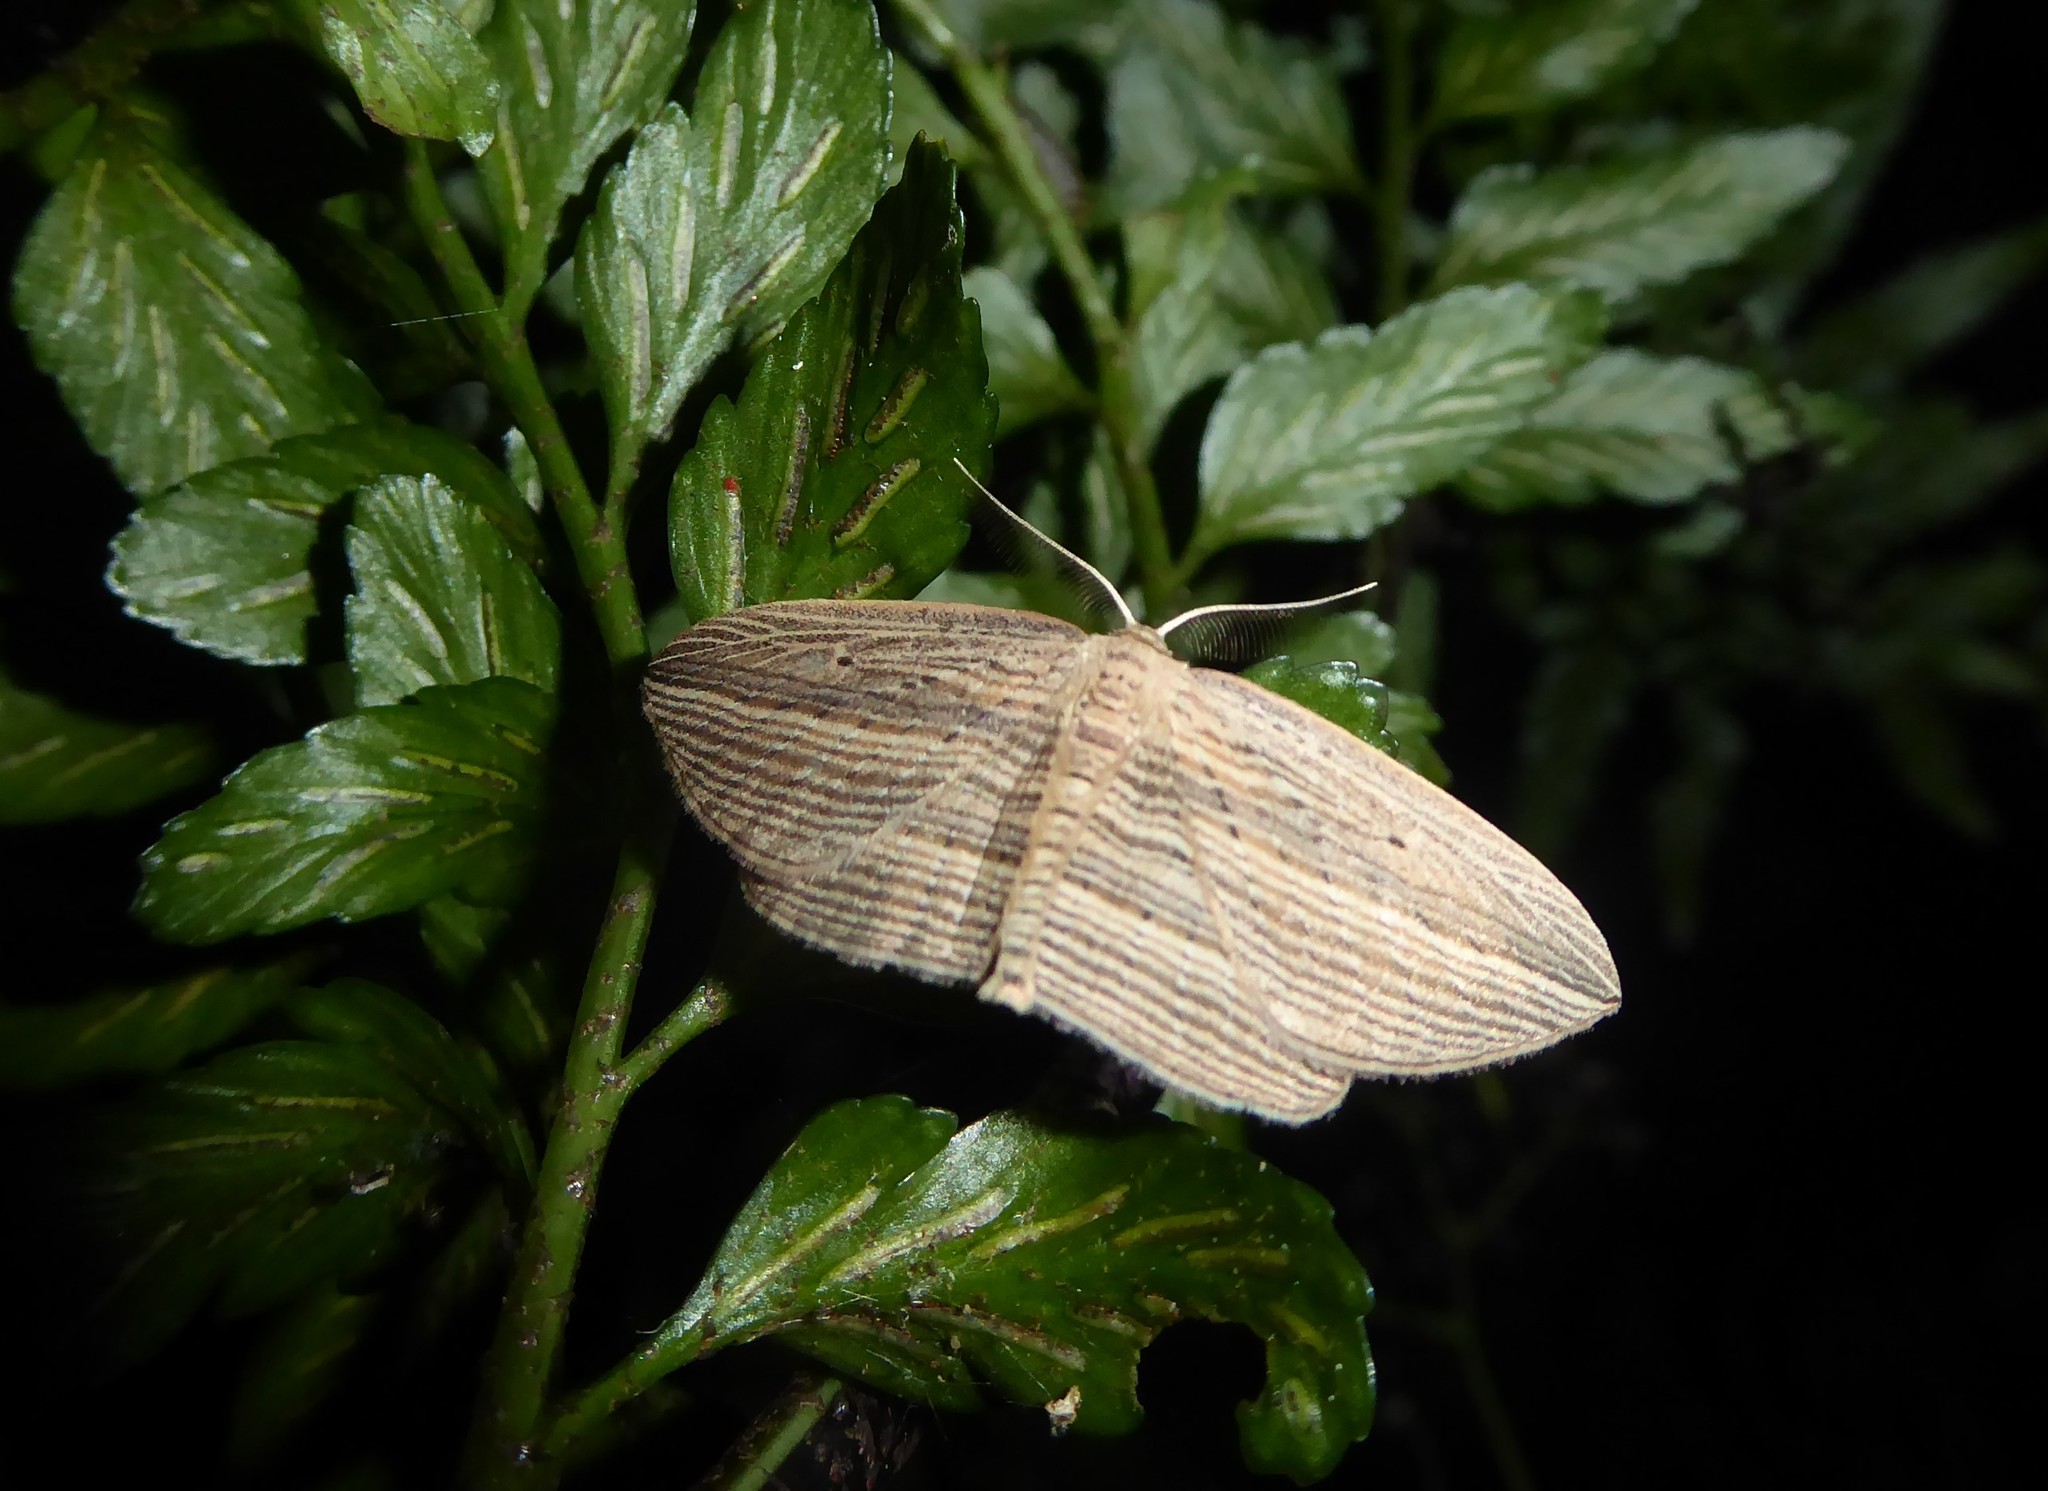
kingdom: Animalia
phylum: Arthropoda
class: Insecta
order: Lepidoptera
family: Geometridae
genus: Epiphryne
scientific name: Epiphryne verriculata
